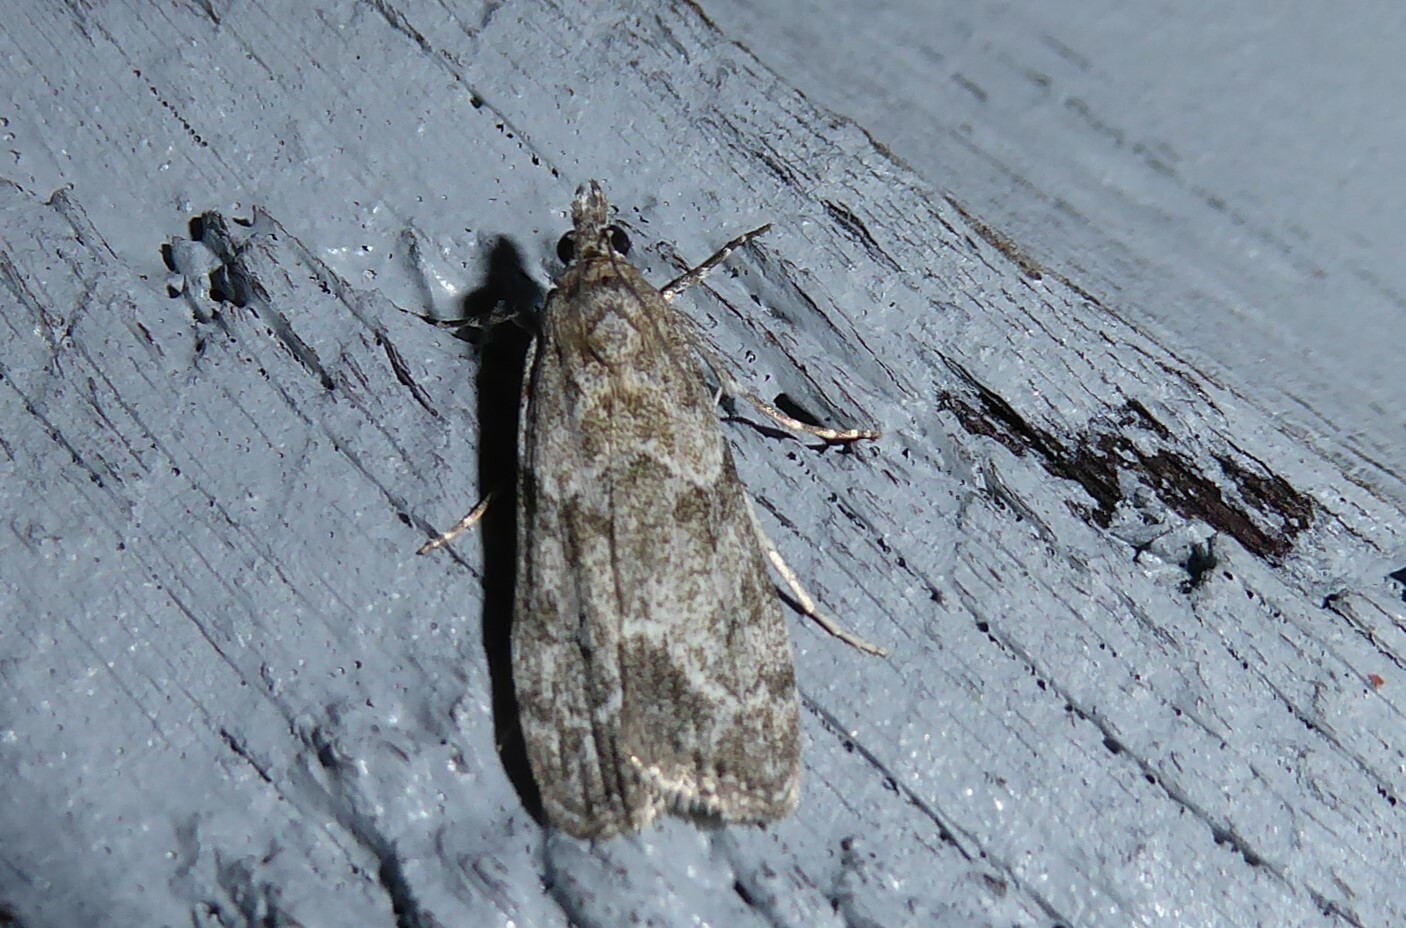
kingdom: Animalia
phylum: Arthropoda
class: Insecta
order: Lepidoptera
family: Crambidae
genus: Eudonia
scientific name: Eudonia rakaiensis
